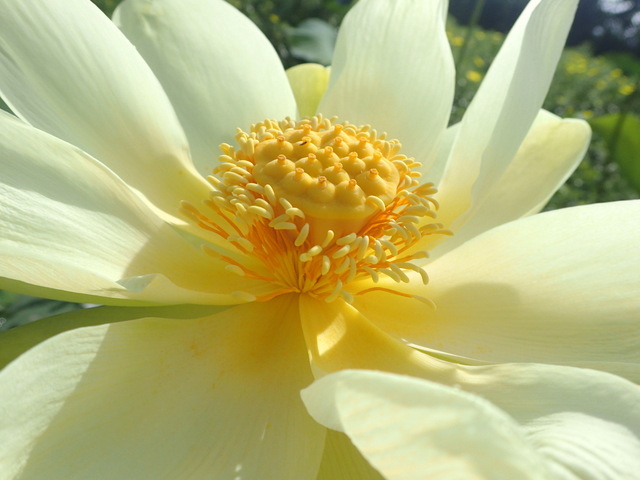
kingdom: Plantae
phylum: Tracheophyta
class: Magnoliopsida
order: Proteales
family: Nelumbonaceae
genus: Nelumbo
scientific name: Nelumbo lutea
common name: American lotus
